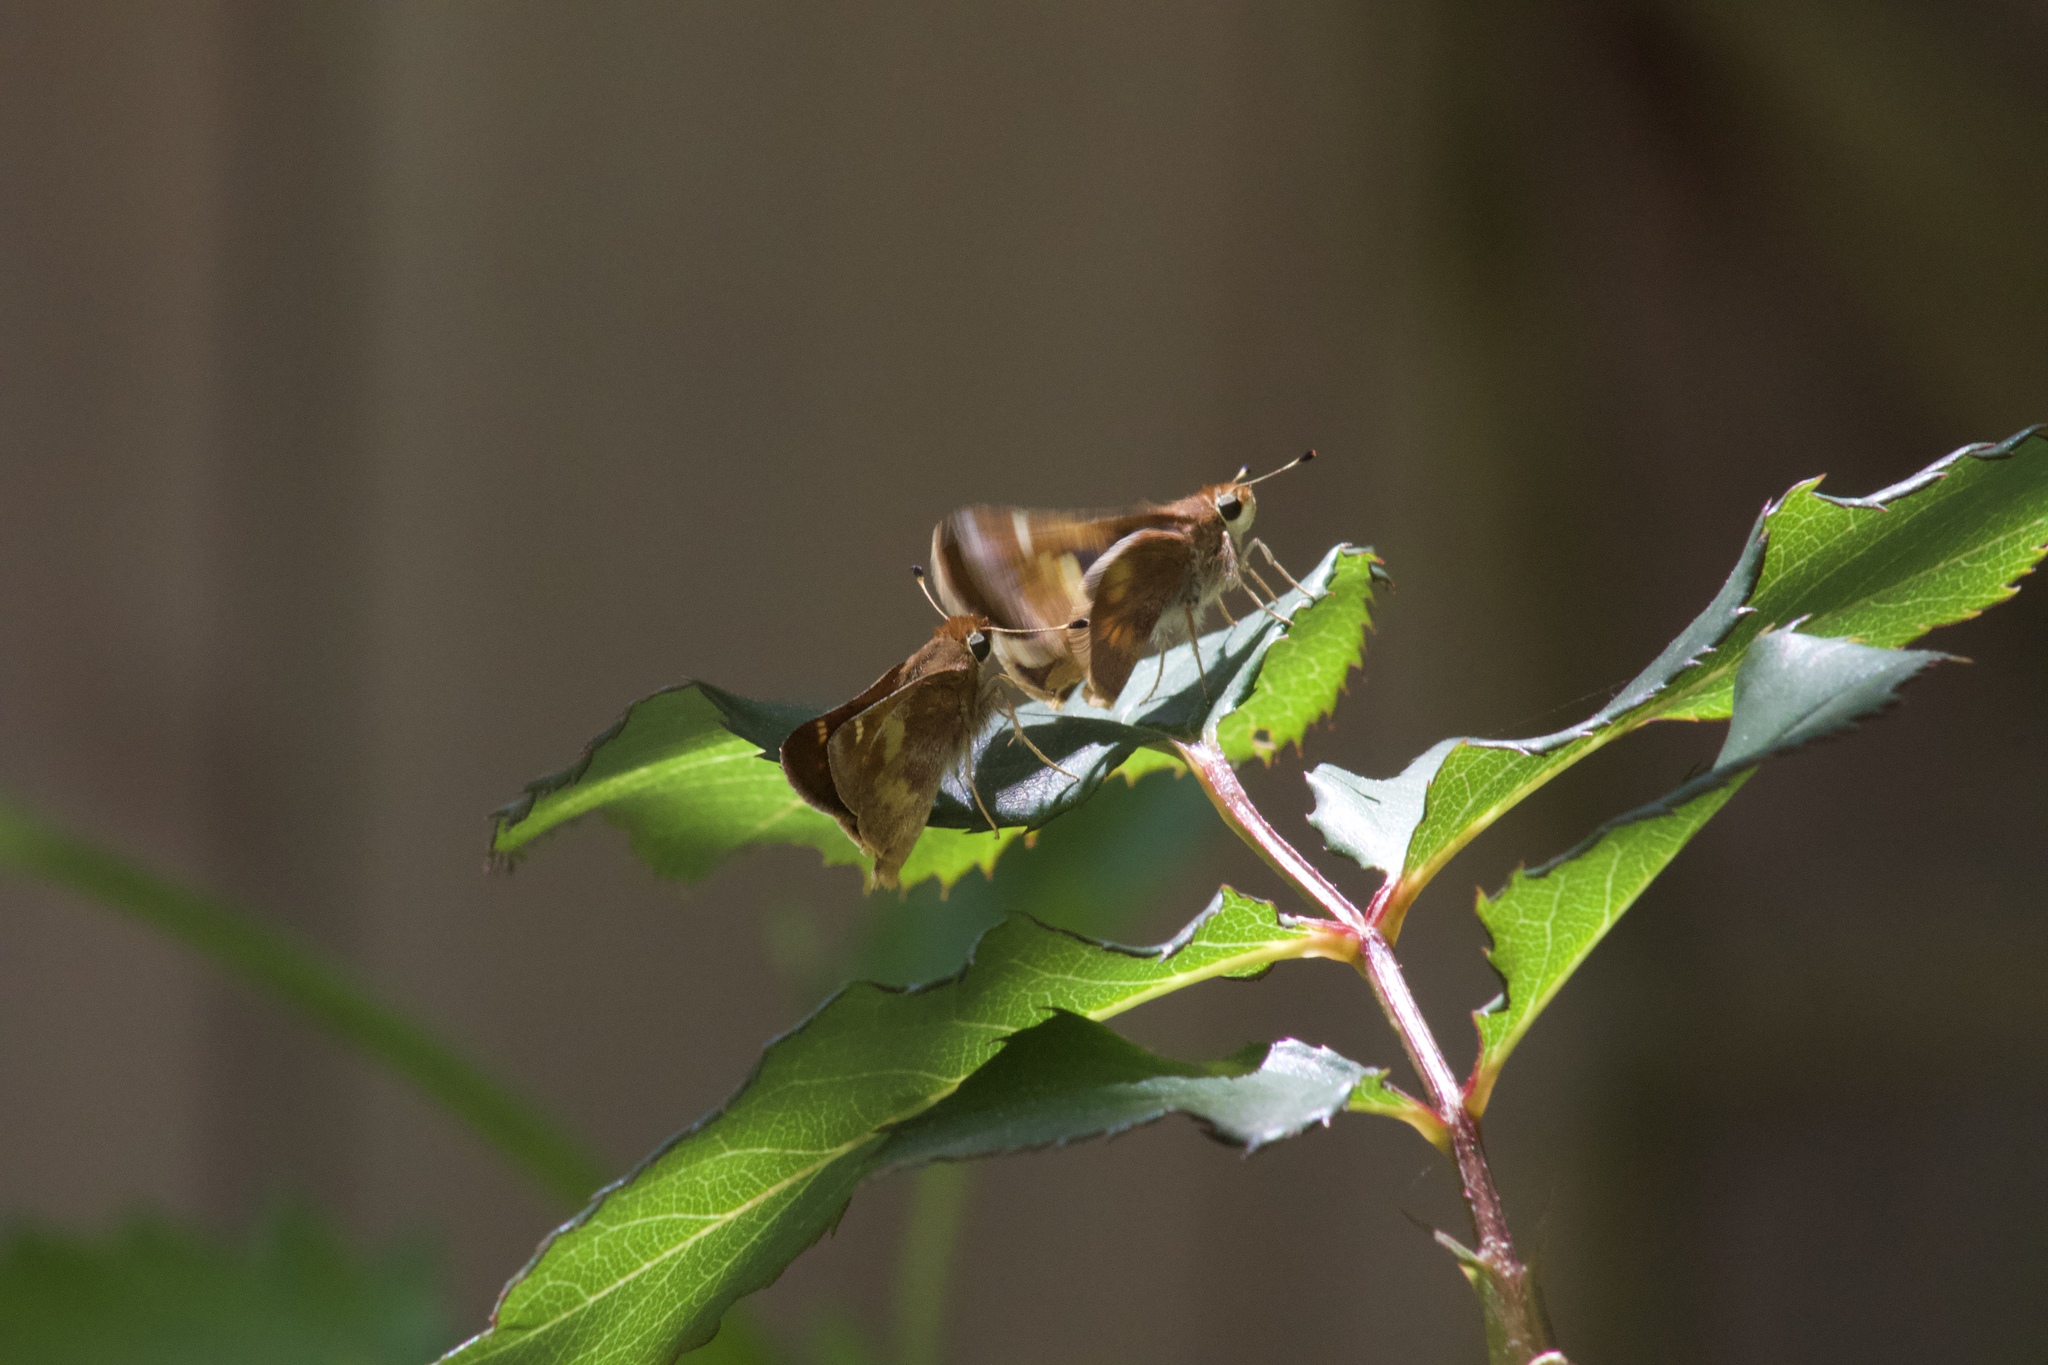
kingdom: Animalia
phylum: Arthropoda
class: Insecta
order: Lepidoptera
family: Hesperiidae
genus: Lon
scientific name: Lon melane
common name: Umber skipper
